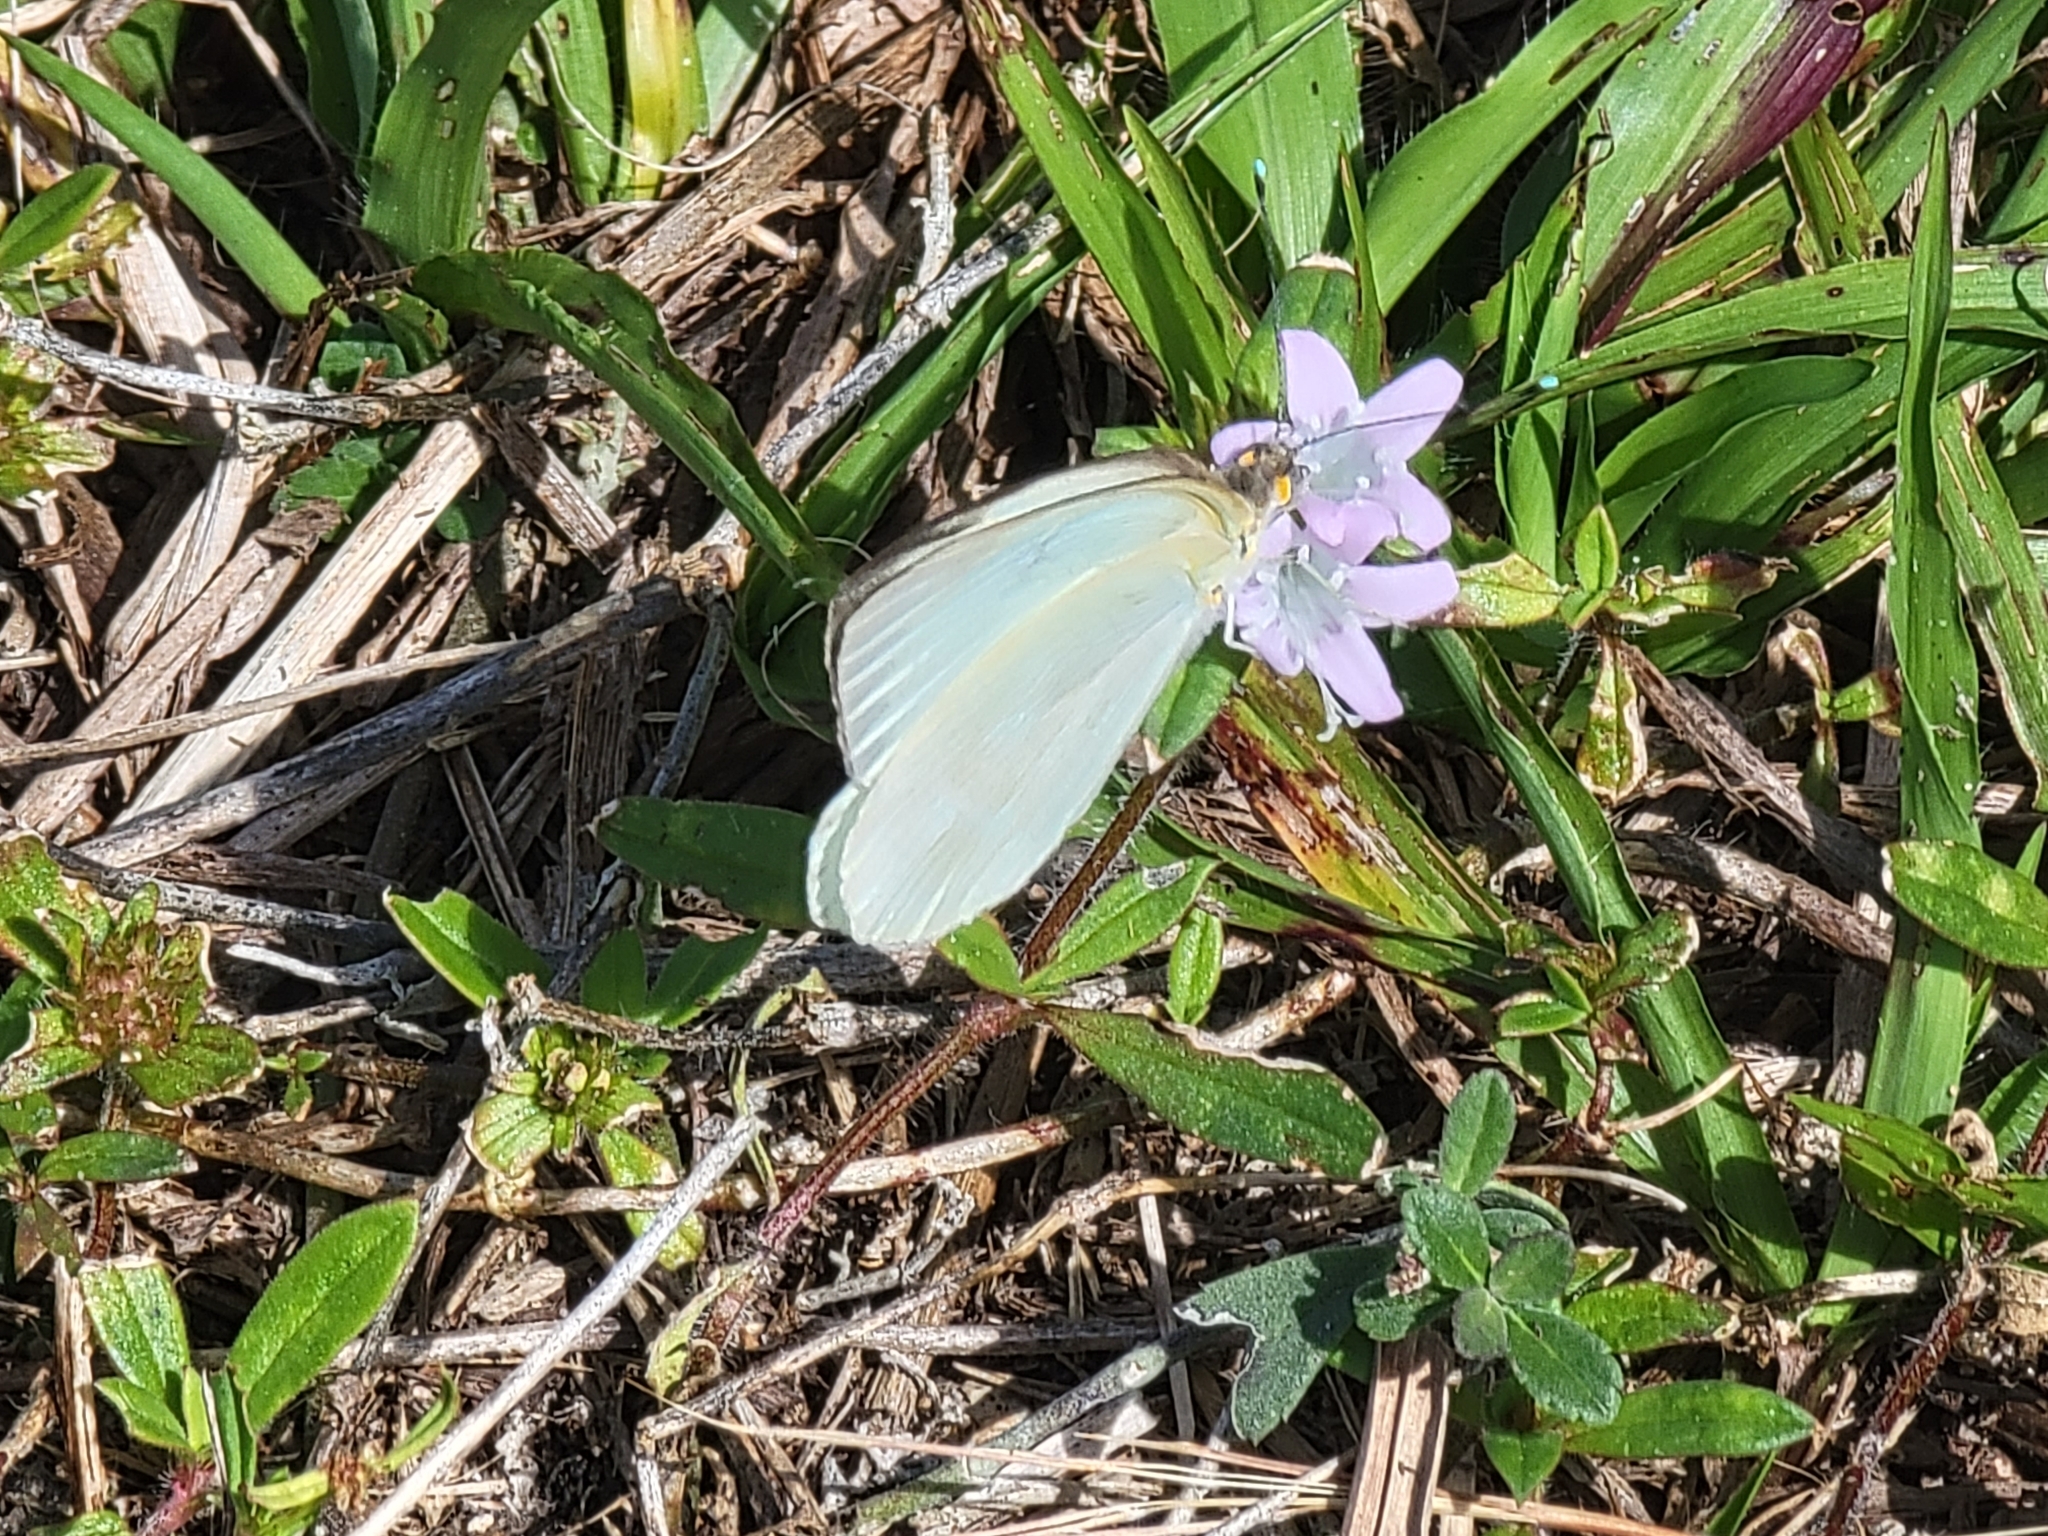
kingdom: Animalia
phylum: Arthropoda
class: Insecta
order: Lepidoptera
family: Pieridae
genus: Ascia
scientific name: Ascia monuste
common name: Great southern white
